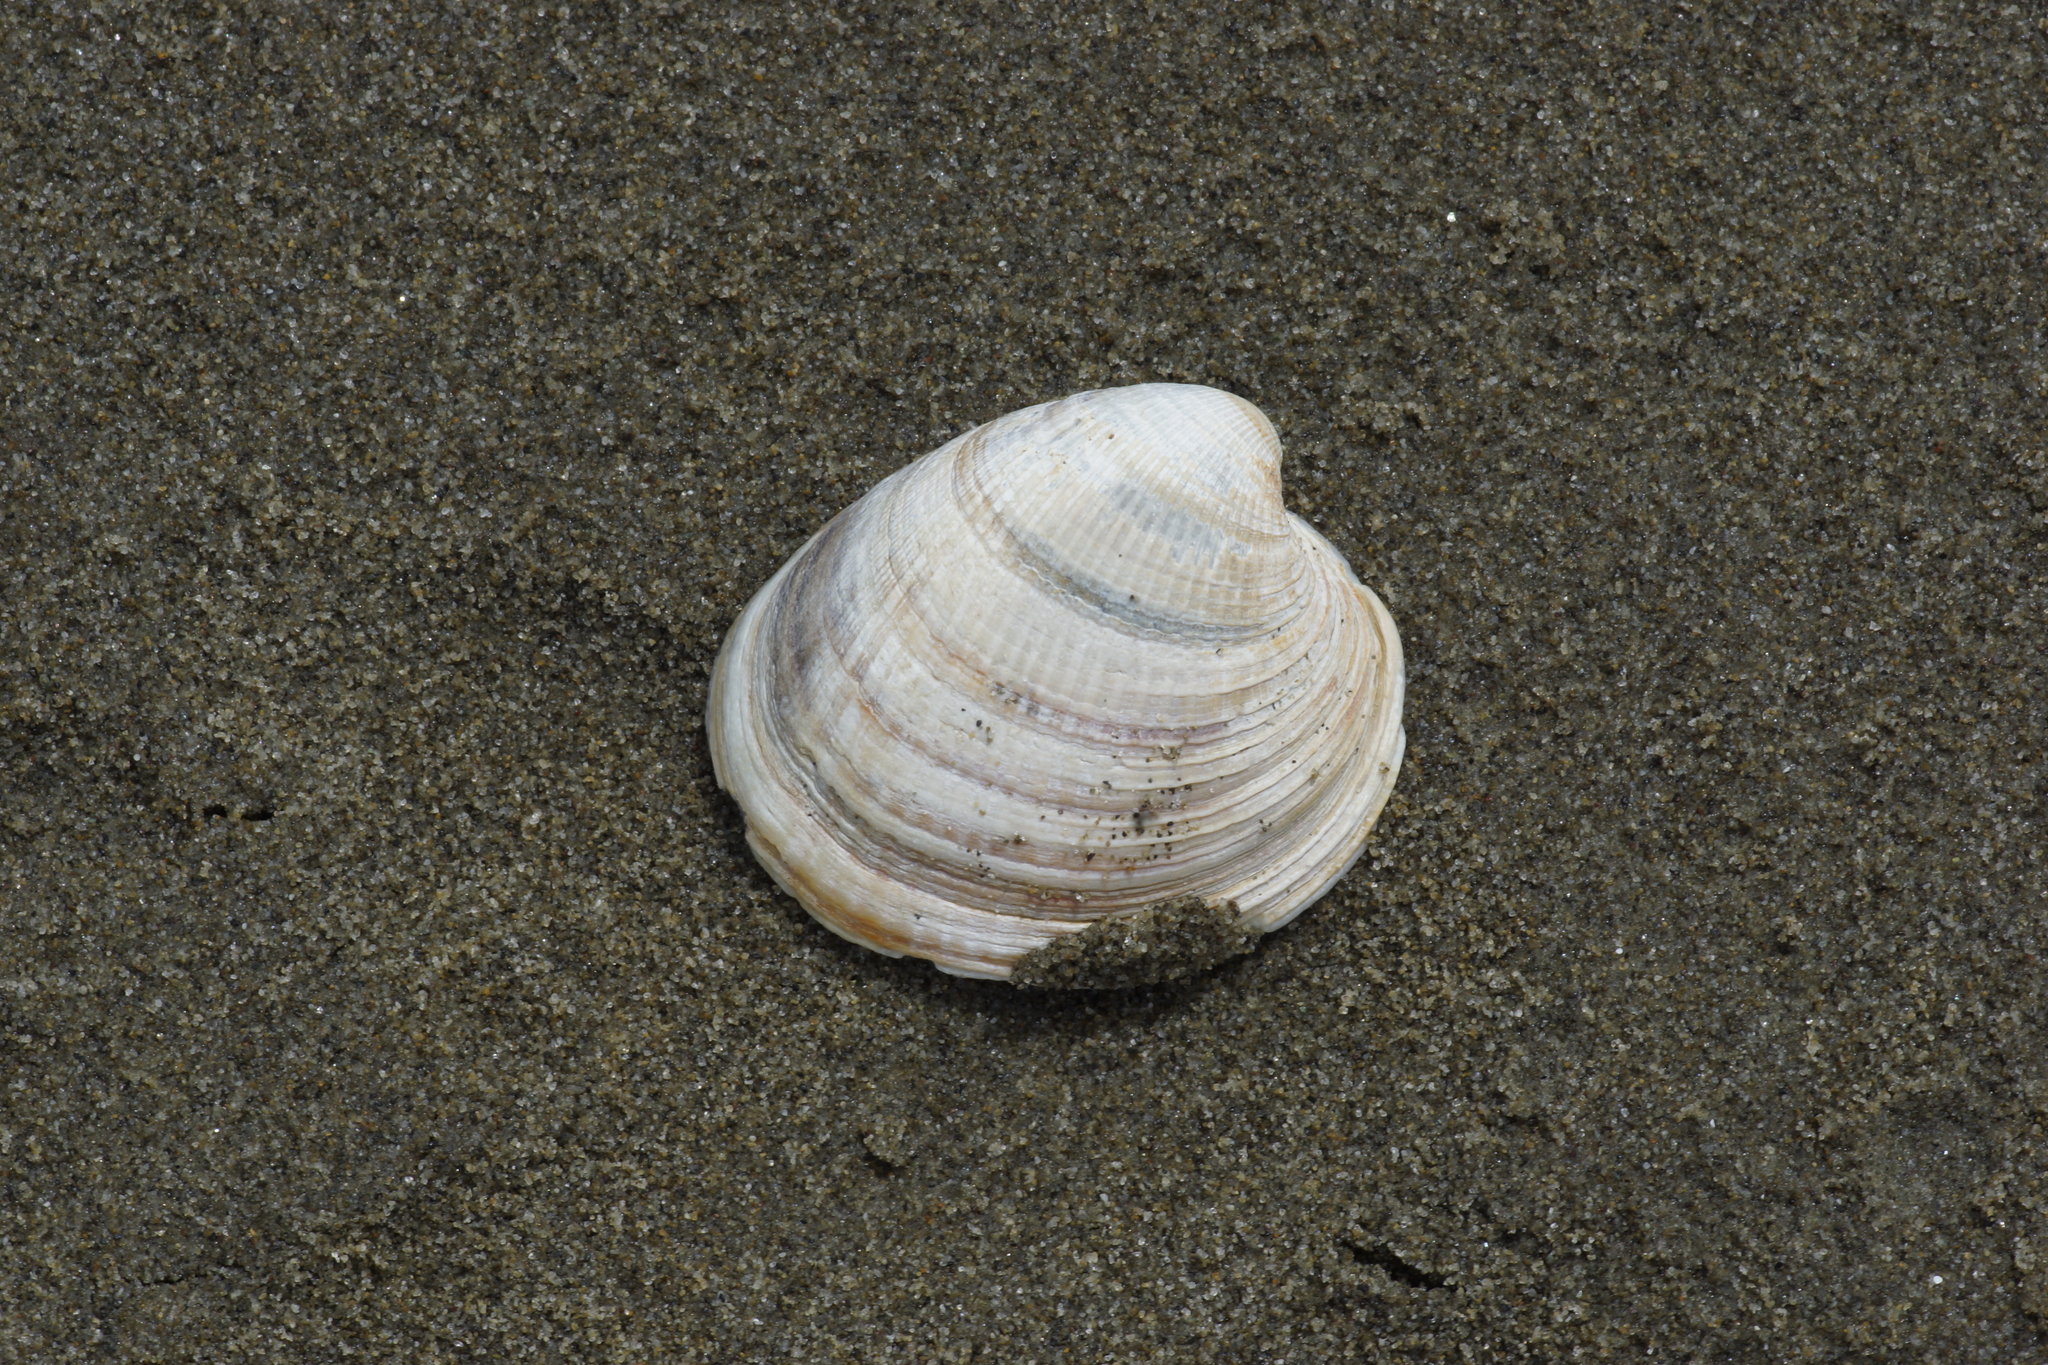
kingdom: Animalia
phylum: Mollusca
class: Bivalvia
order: Venerida
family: Veneridae
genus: Austrovenus
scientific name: Austrovenus stutchburyi
